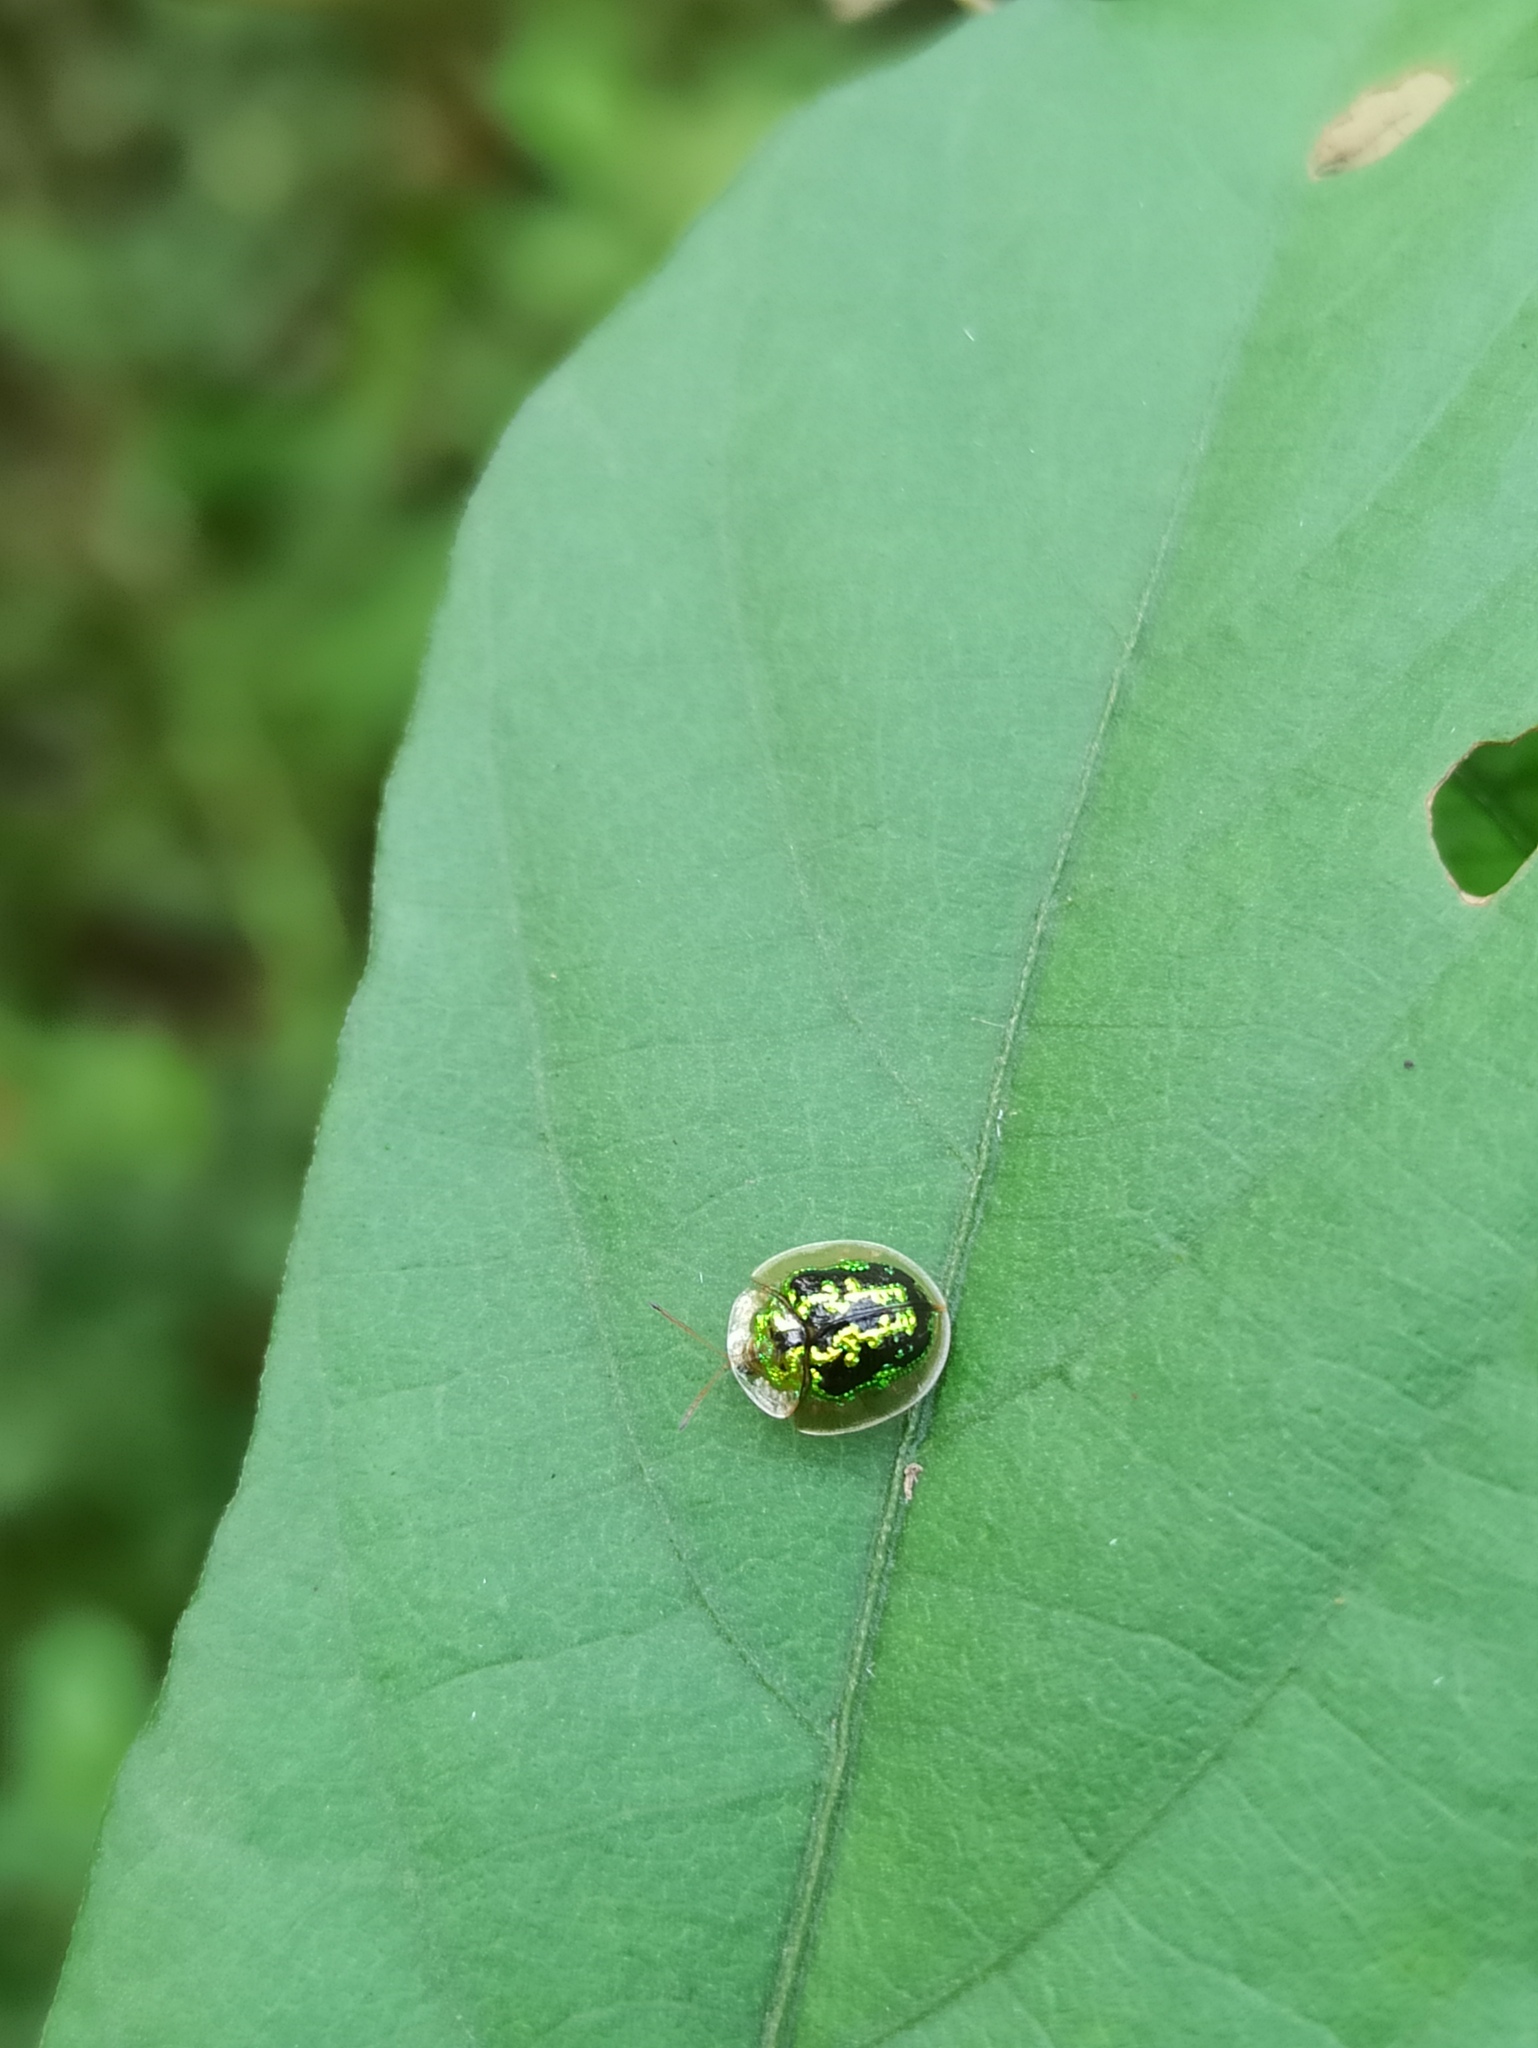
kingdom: Animalia
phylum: Arthropoda
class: Insecta
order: Coleoptera
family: Chrysomelidae
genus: Cassida
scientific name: Cassida circumdata
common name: Tortoise beetle
